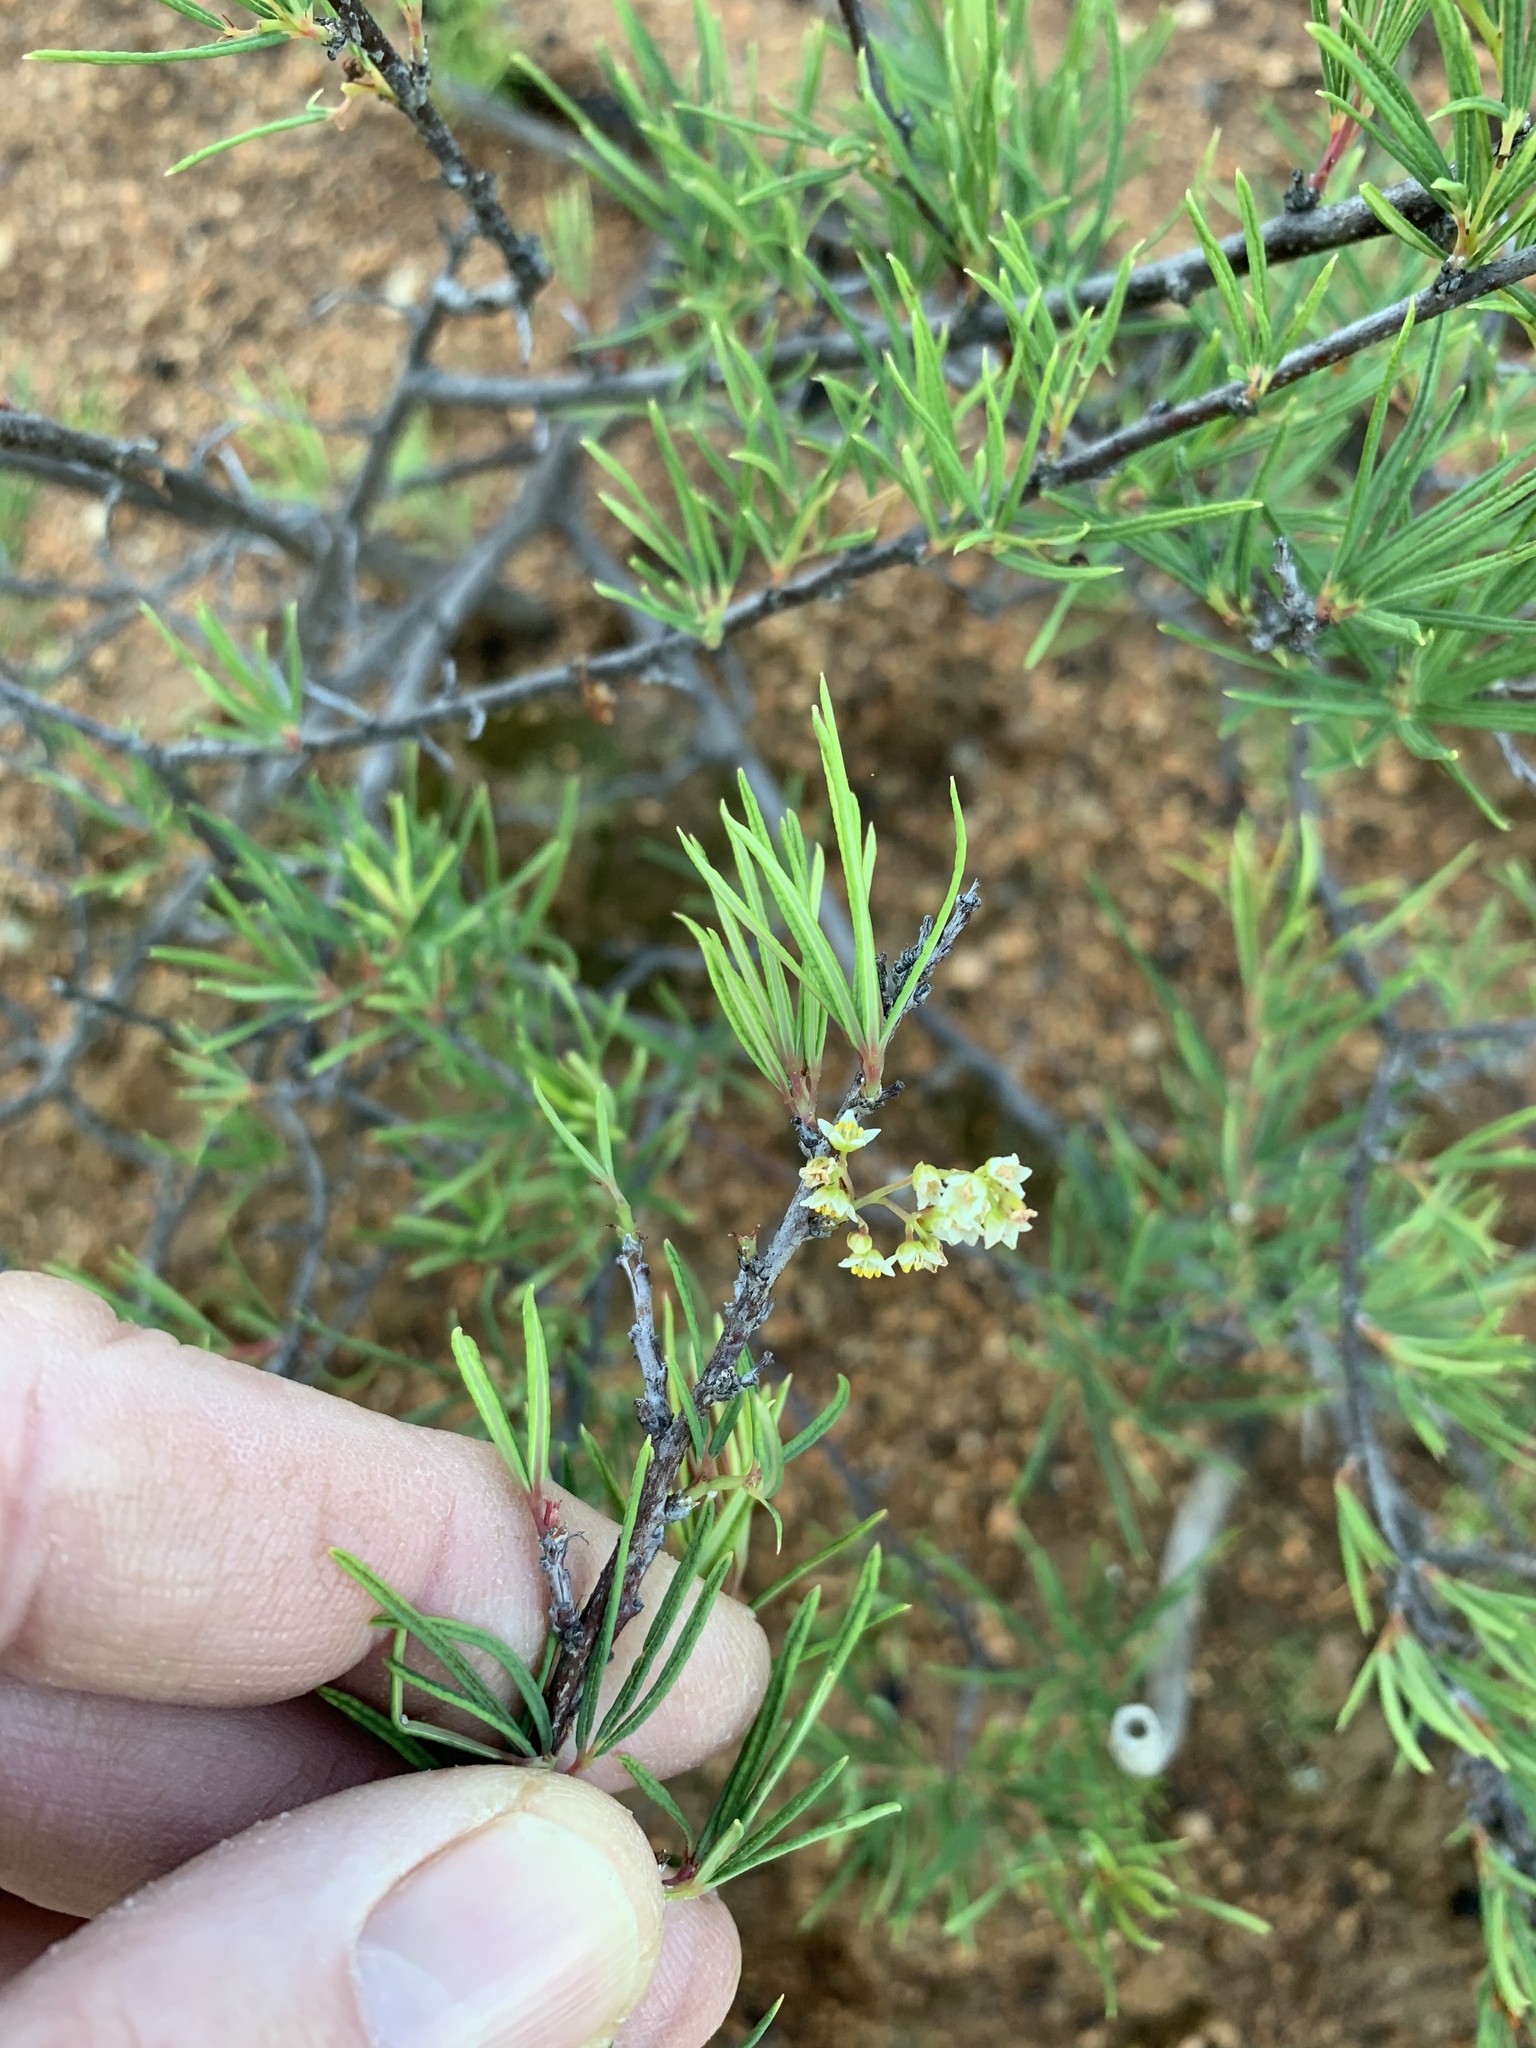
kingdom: Plantae
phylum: Tracheophyta
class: Magnoliopsida
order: Sapindales
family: Anacardiaceae
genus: Searsia
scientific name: Searsia rosmarinifolia
